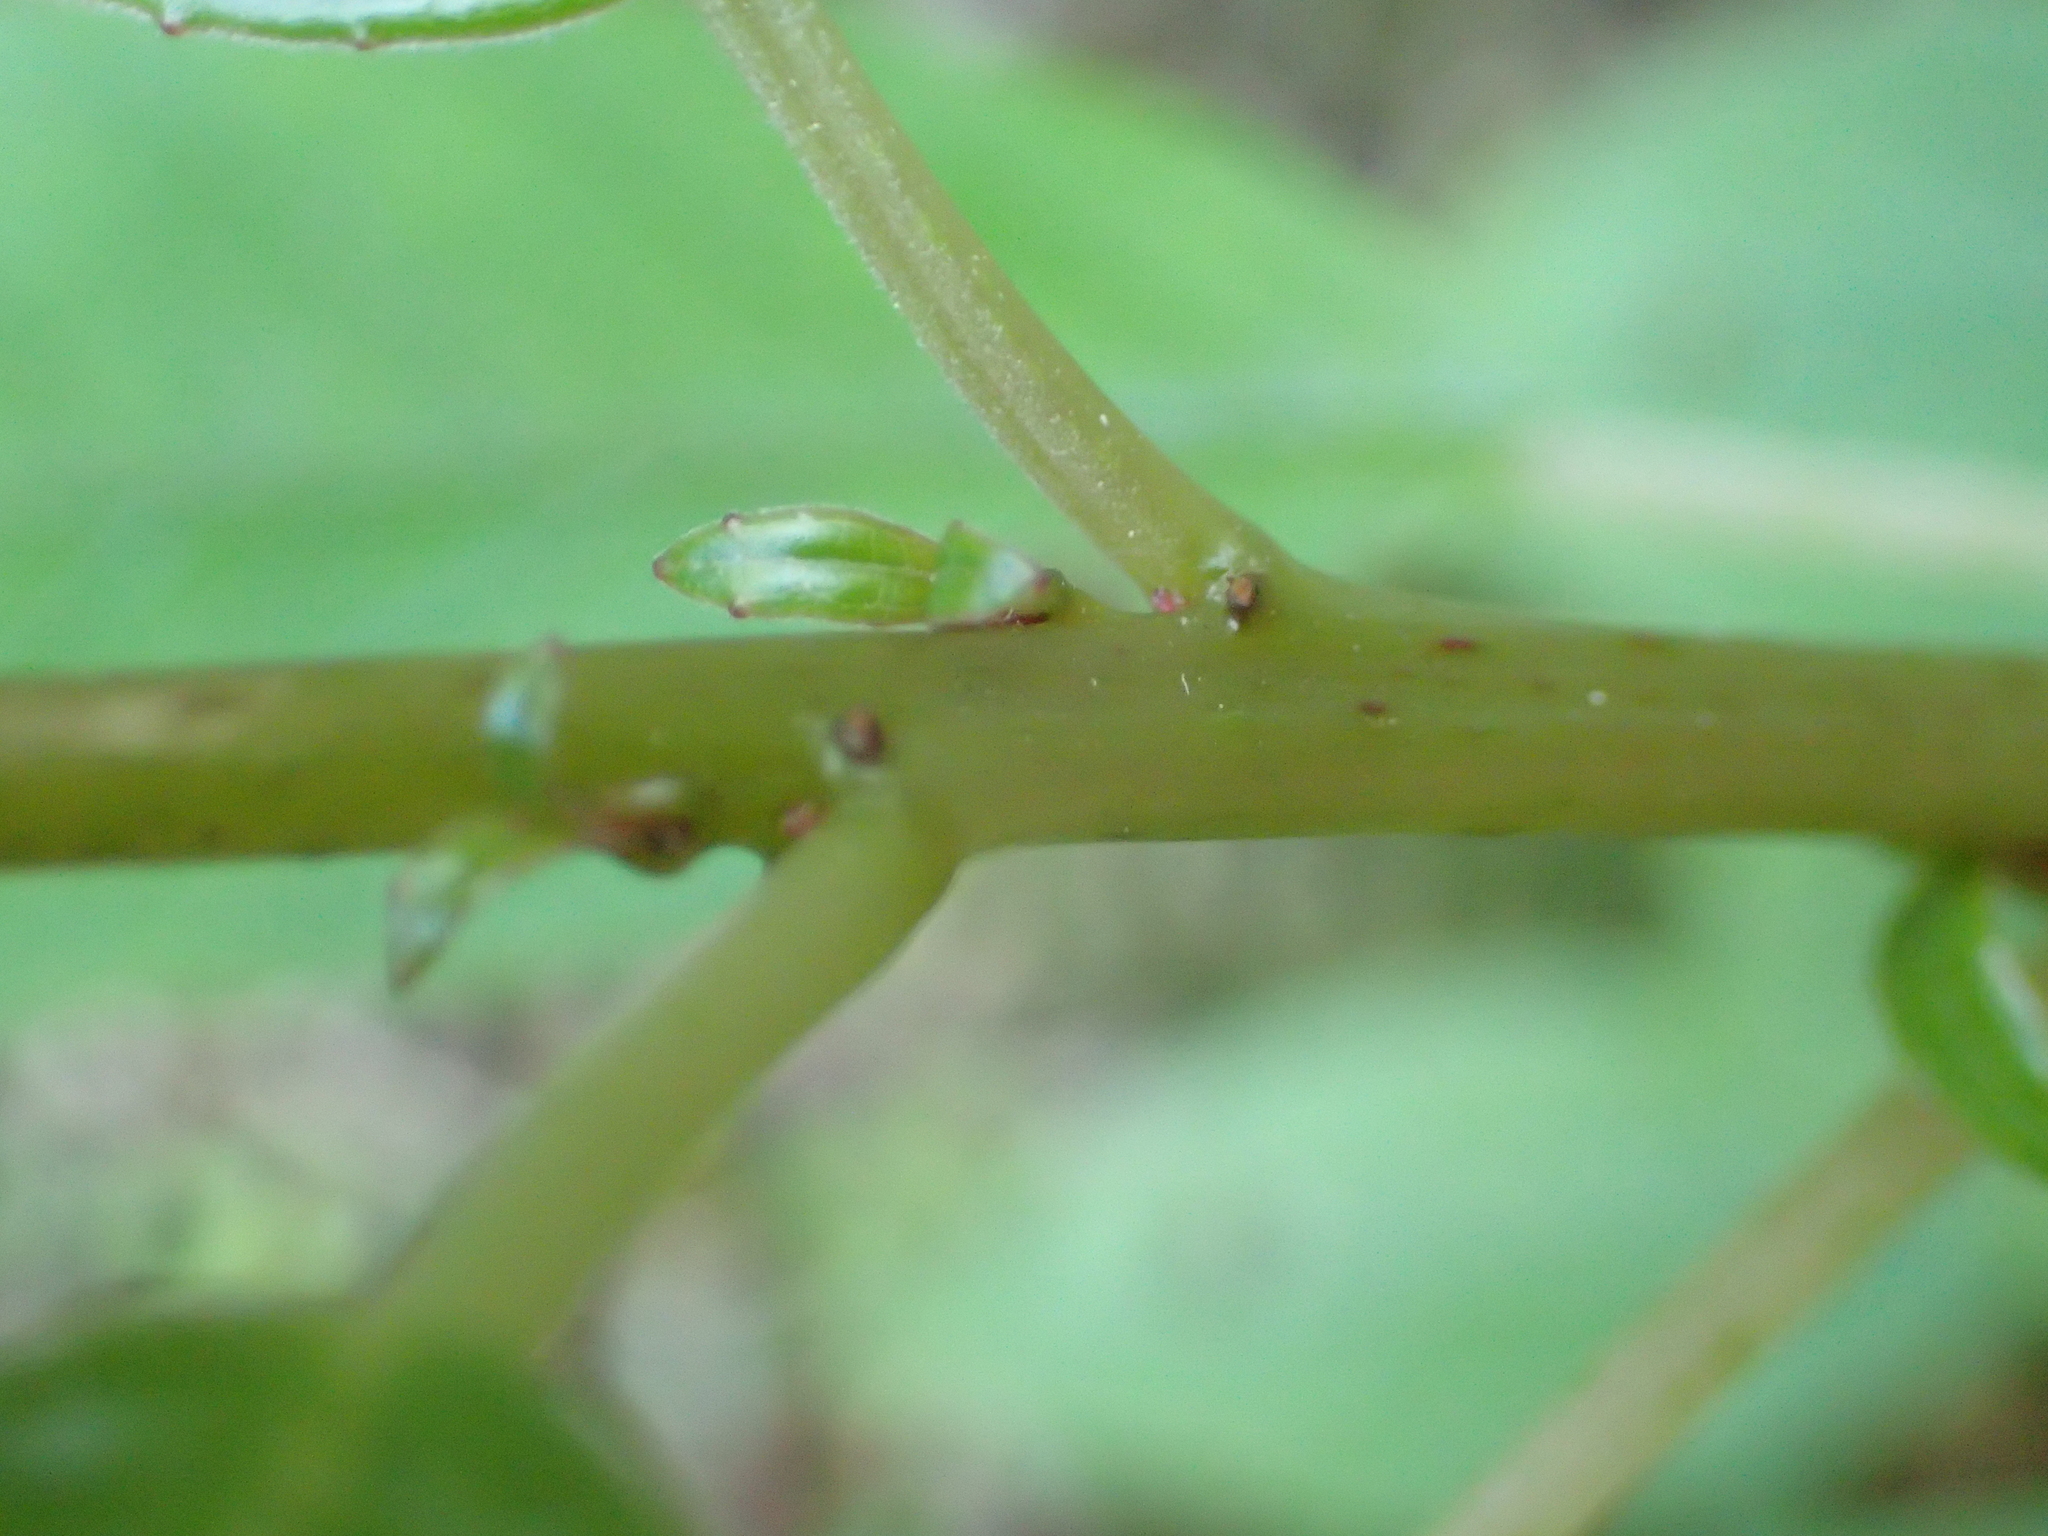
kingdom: Plantae
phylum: Tracheophyta
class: Magnoliopsida
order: Myrtales
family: Onagraceae
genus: Fuchsia
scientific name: Fuchsia excorticata
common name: Tree fuchsia
